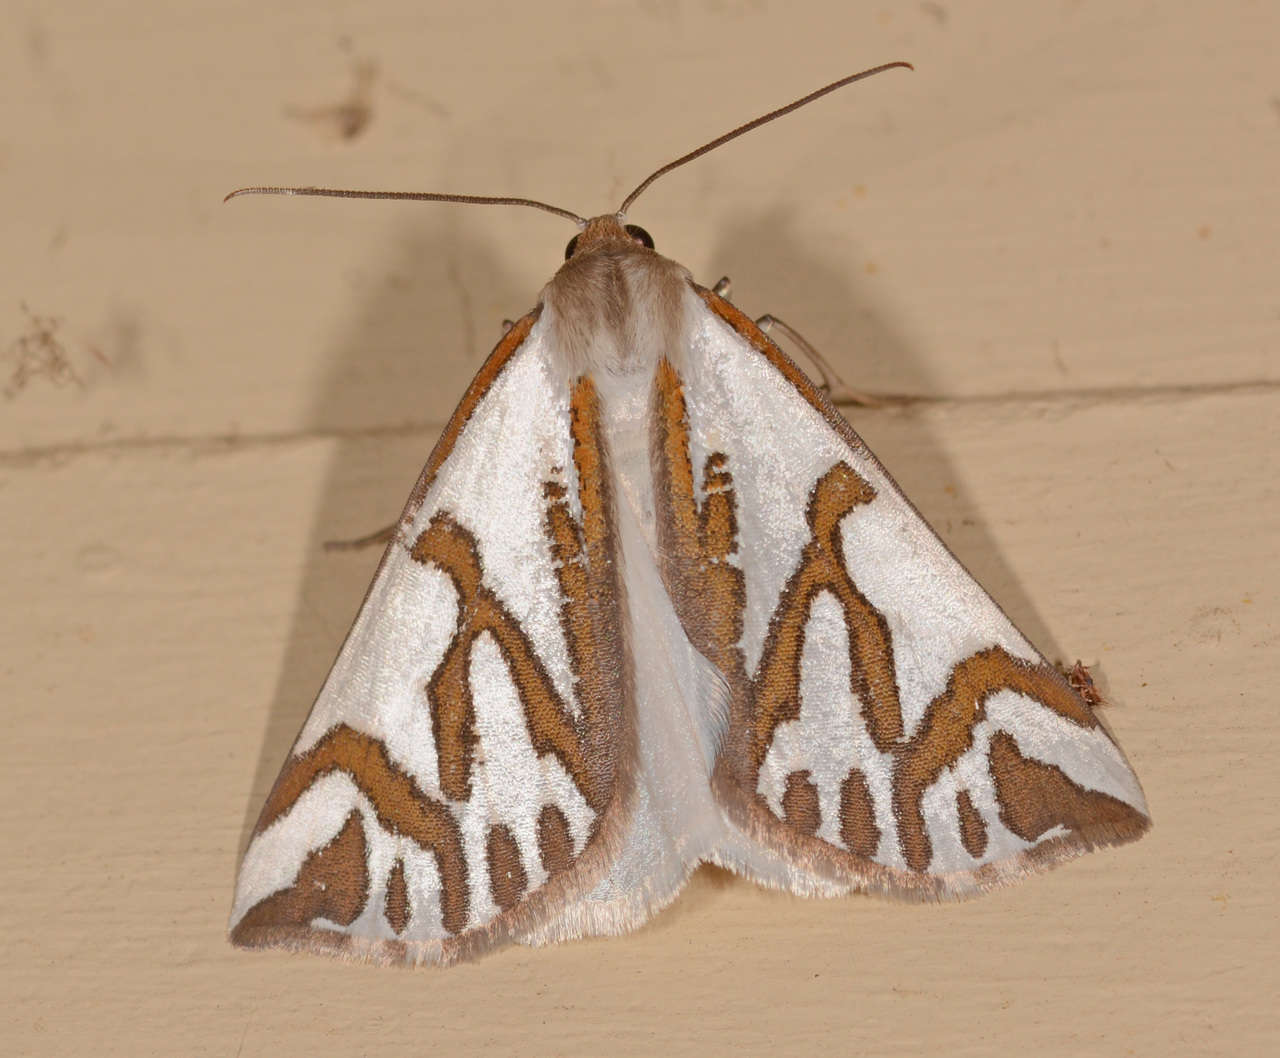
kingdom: Animalia
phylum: Arthropoda
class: Insecta
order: Lepidoptera
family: Geometridae
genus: Thalaina
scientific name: Thalaina inscripta
